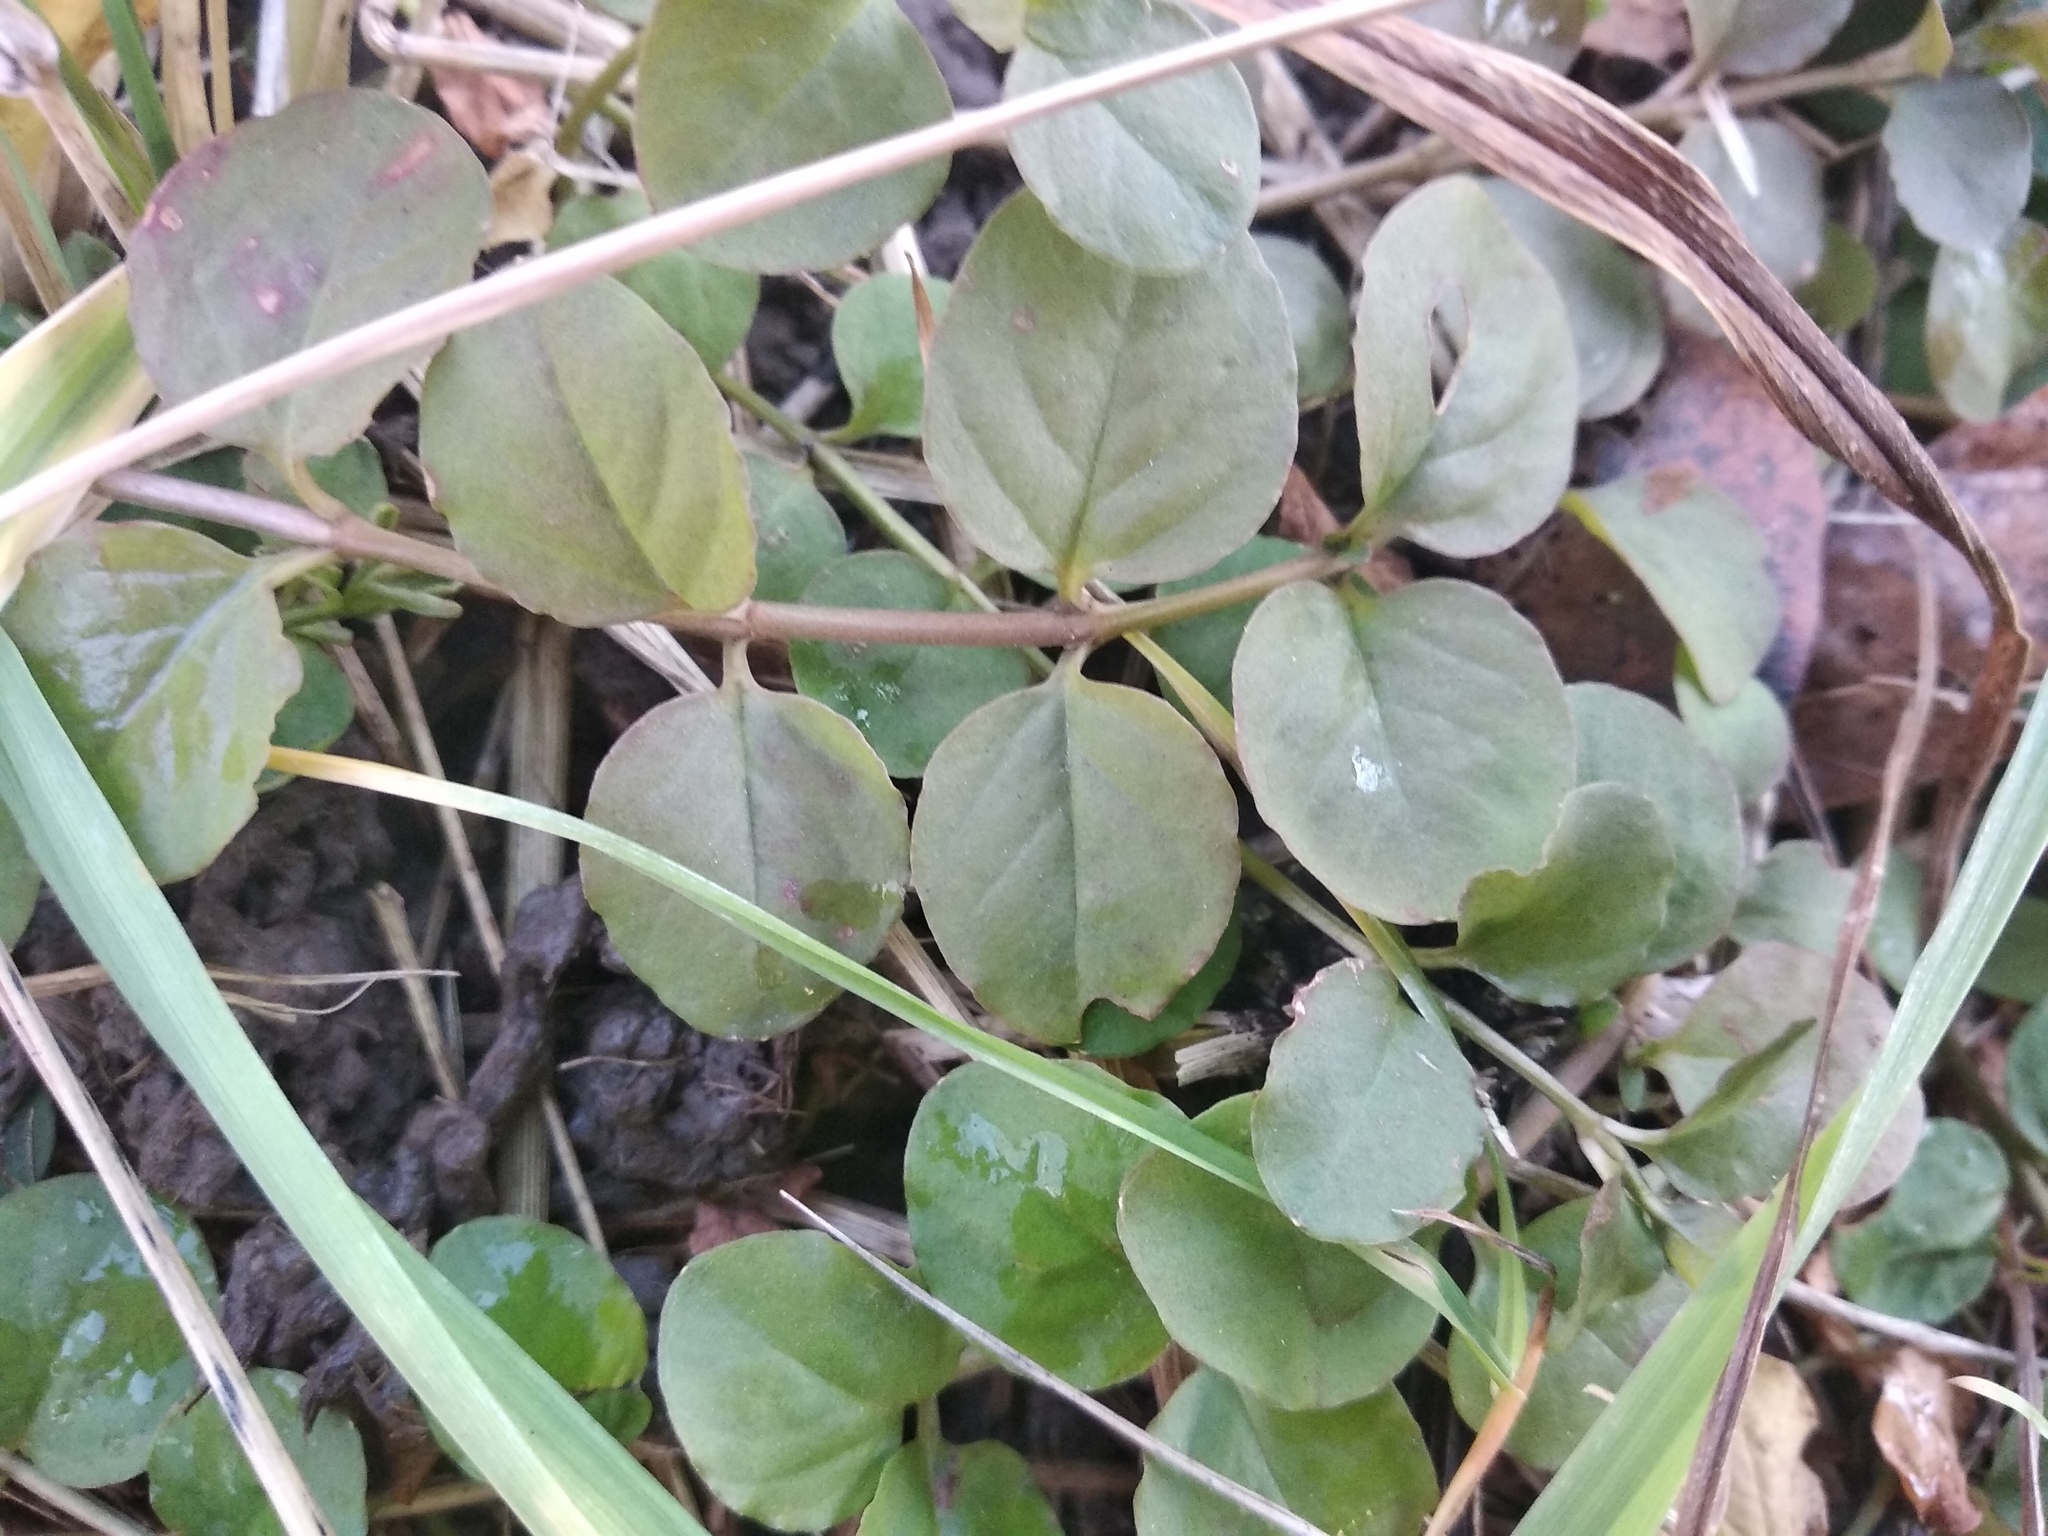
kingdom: Plantae
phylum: Tracheophyta
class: Magnoliopsida
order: Ericales
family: Primulaceae
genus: Lysimachia
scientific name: Lysimachia nummularia
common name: Moneywort
